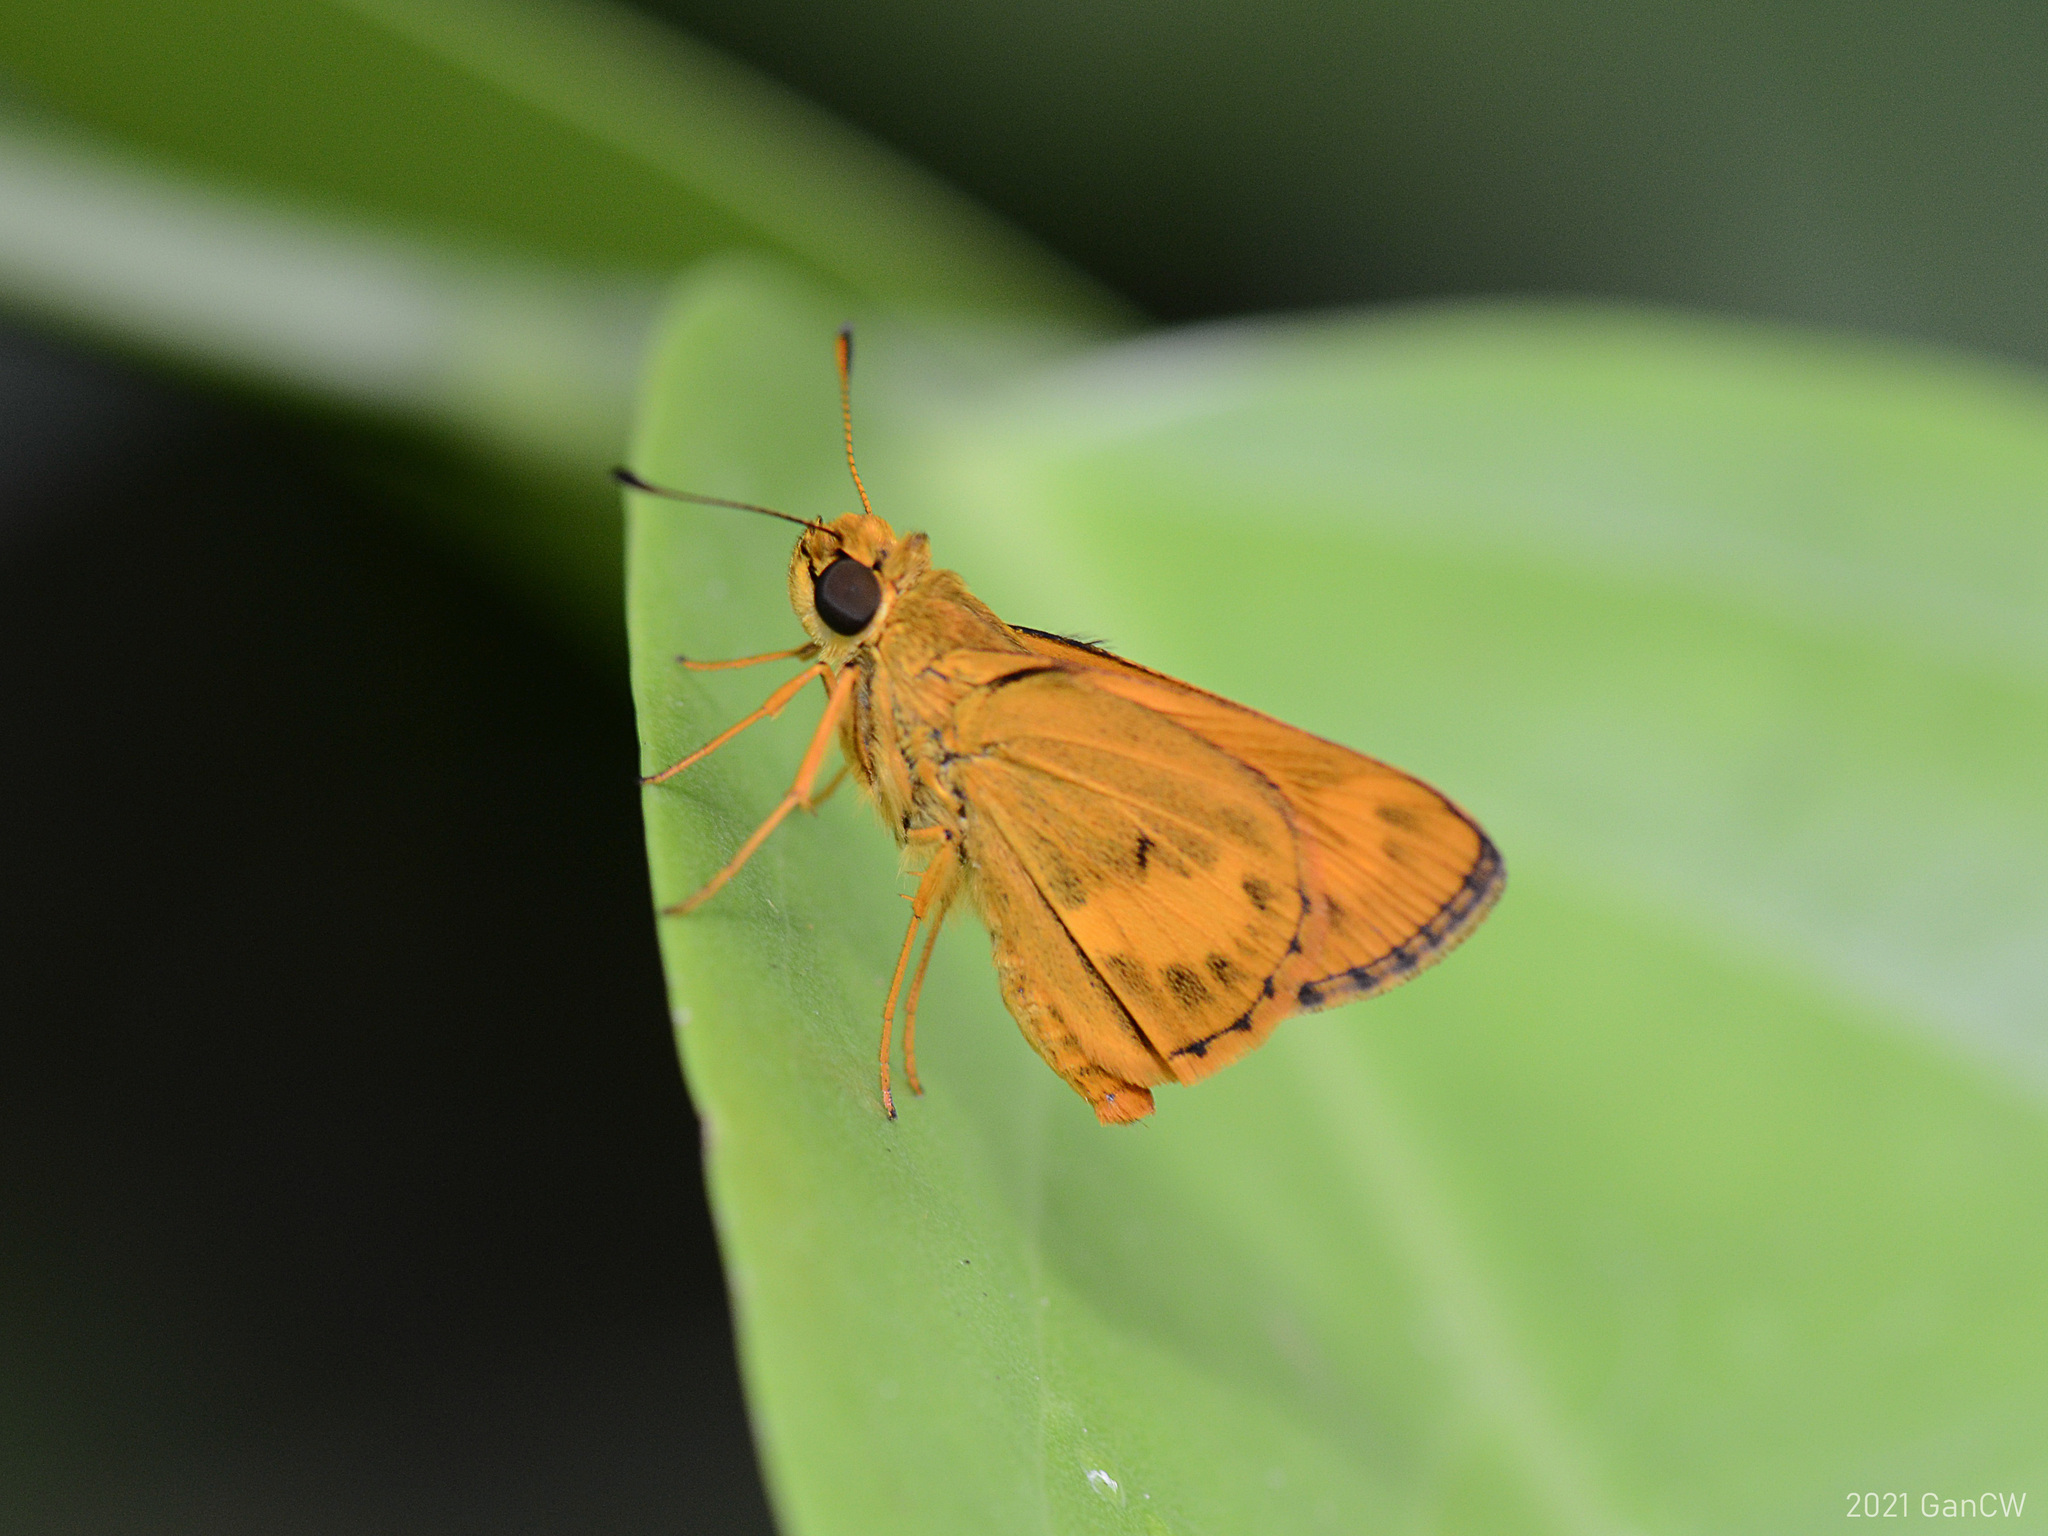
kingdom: Animalia
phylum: Arthropoda
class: Insecta
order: Lepidoptera
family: Hesperiidae
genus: Oriens
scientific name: Oriens gola
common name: Common dartlet
